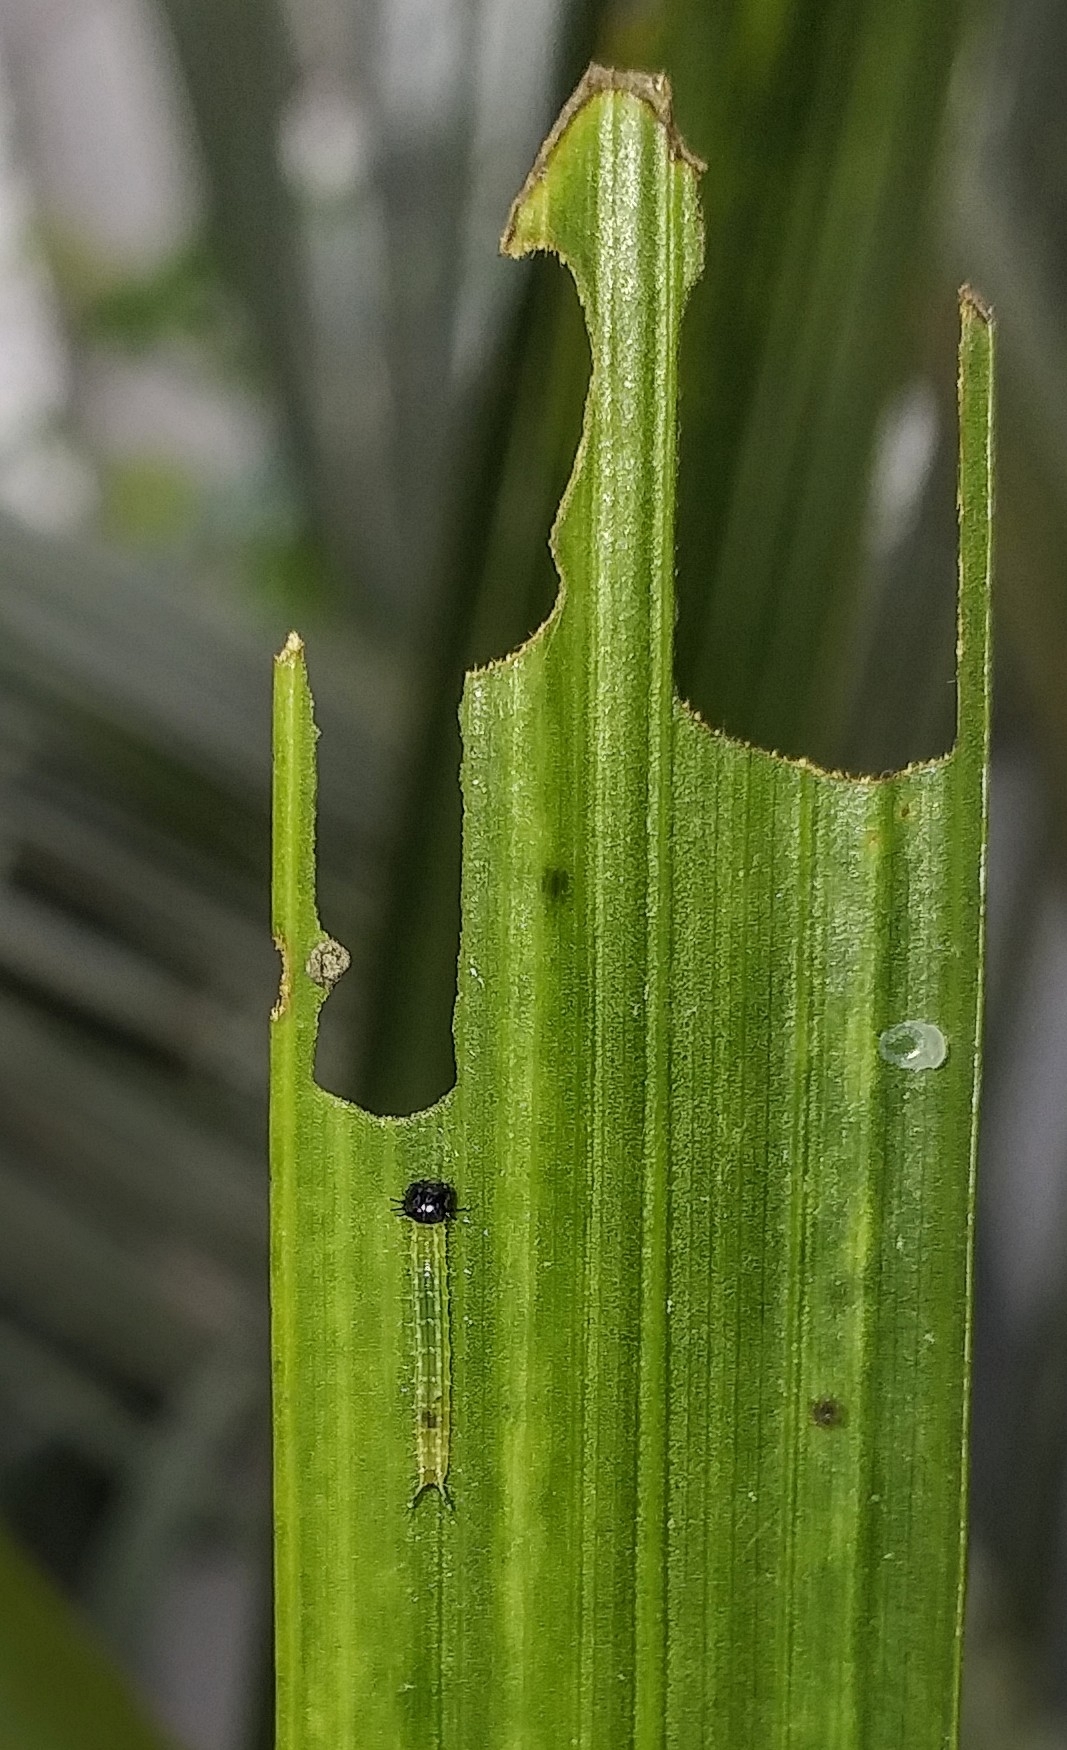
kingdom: Animalia
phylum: Arthropoda
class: Insecta
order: Lepidoptera
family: Nymphalidae
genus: Elymnias
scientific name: Elymnias caudata
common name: Tailed palmfly
